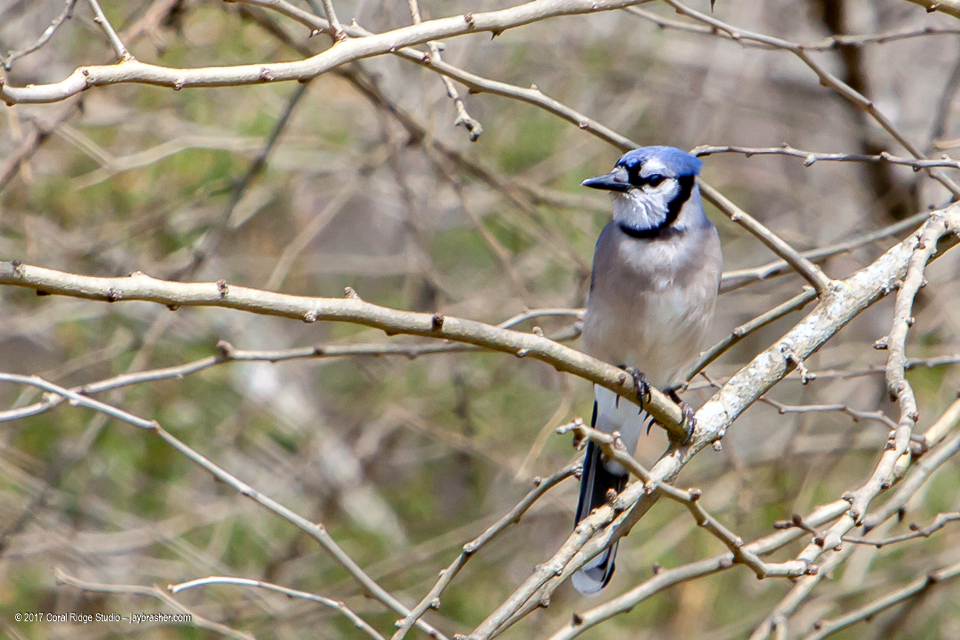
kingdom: Animalia
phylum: Chordata
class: Aves
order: Passeriformes
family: Corvidae
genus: Cyanocitta
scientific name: Cyanocitta cristata
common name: Blue jay
